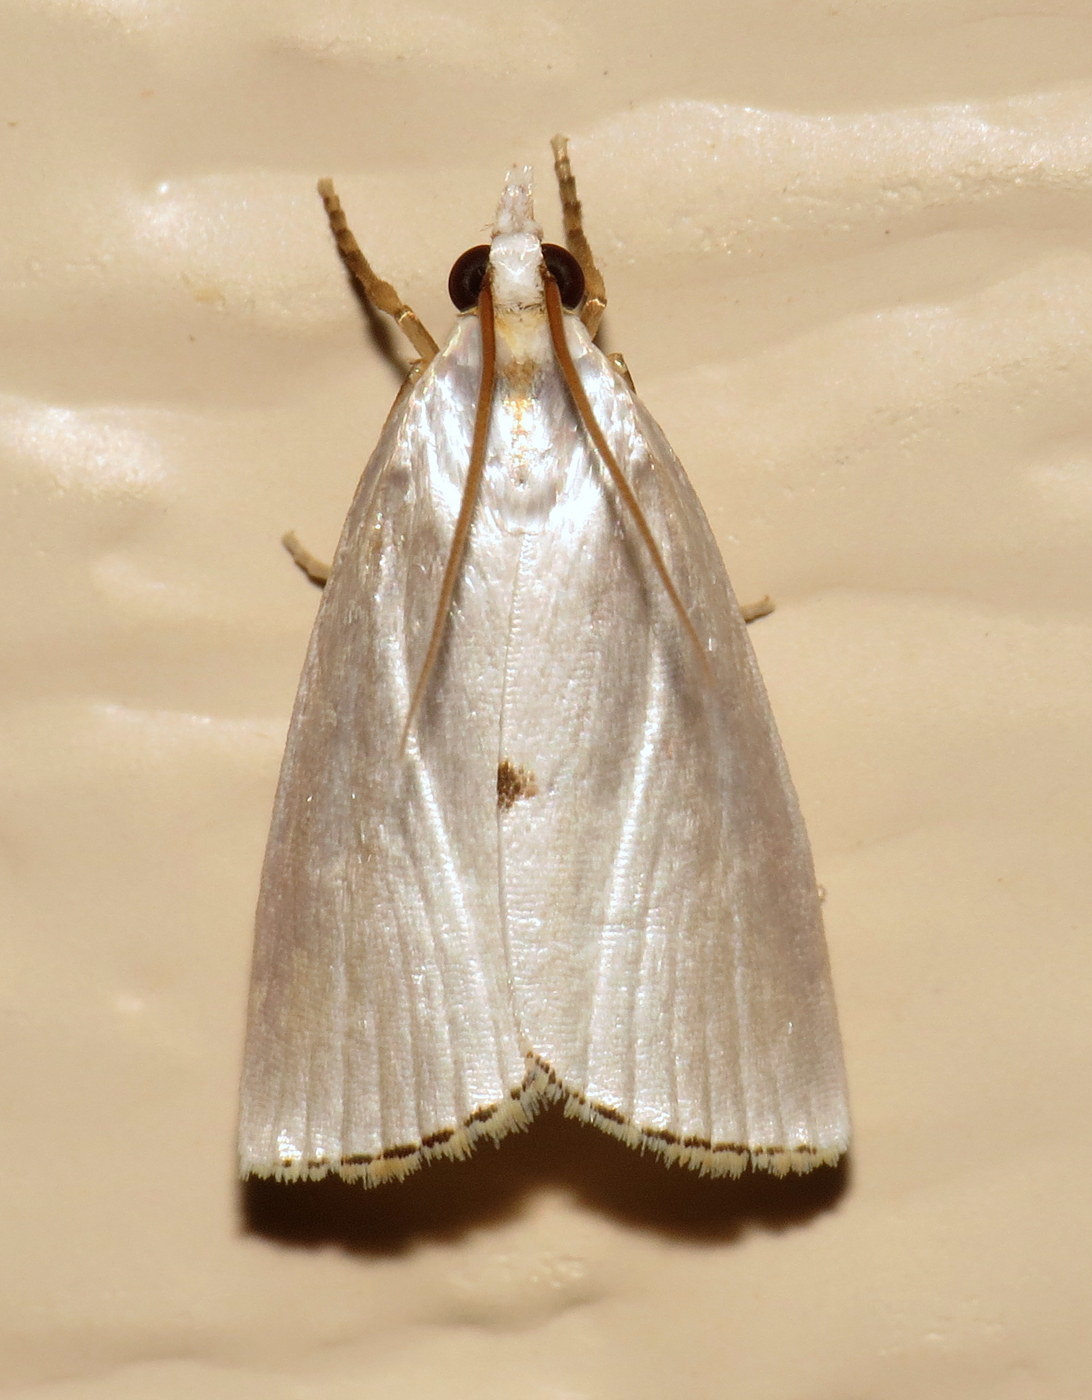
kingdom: Animalia
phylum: Arthropoda
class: Insecta
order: Lepidoptera
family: Crambidae
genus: Argyria
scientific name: Argyria nivalis
